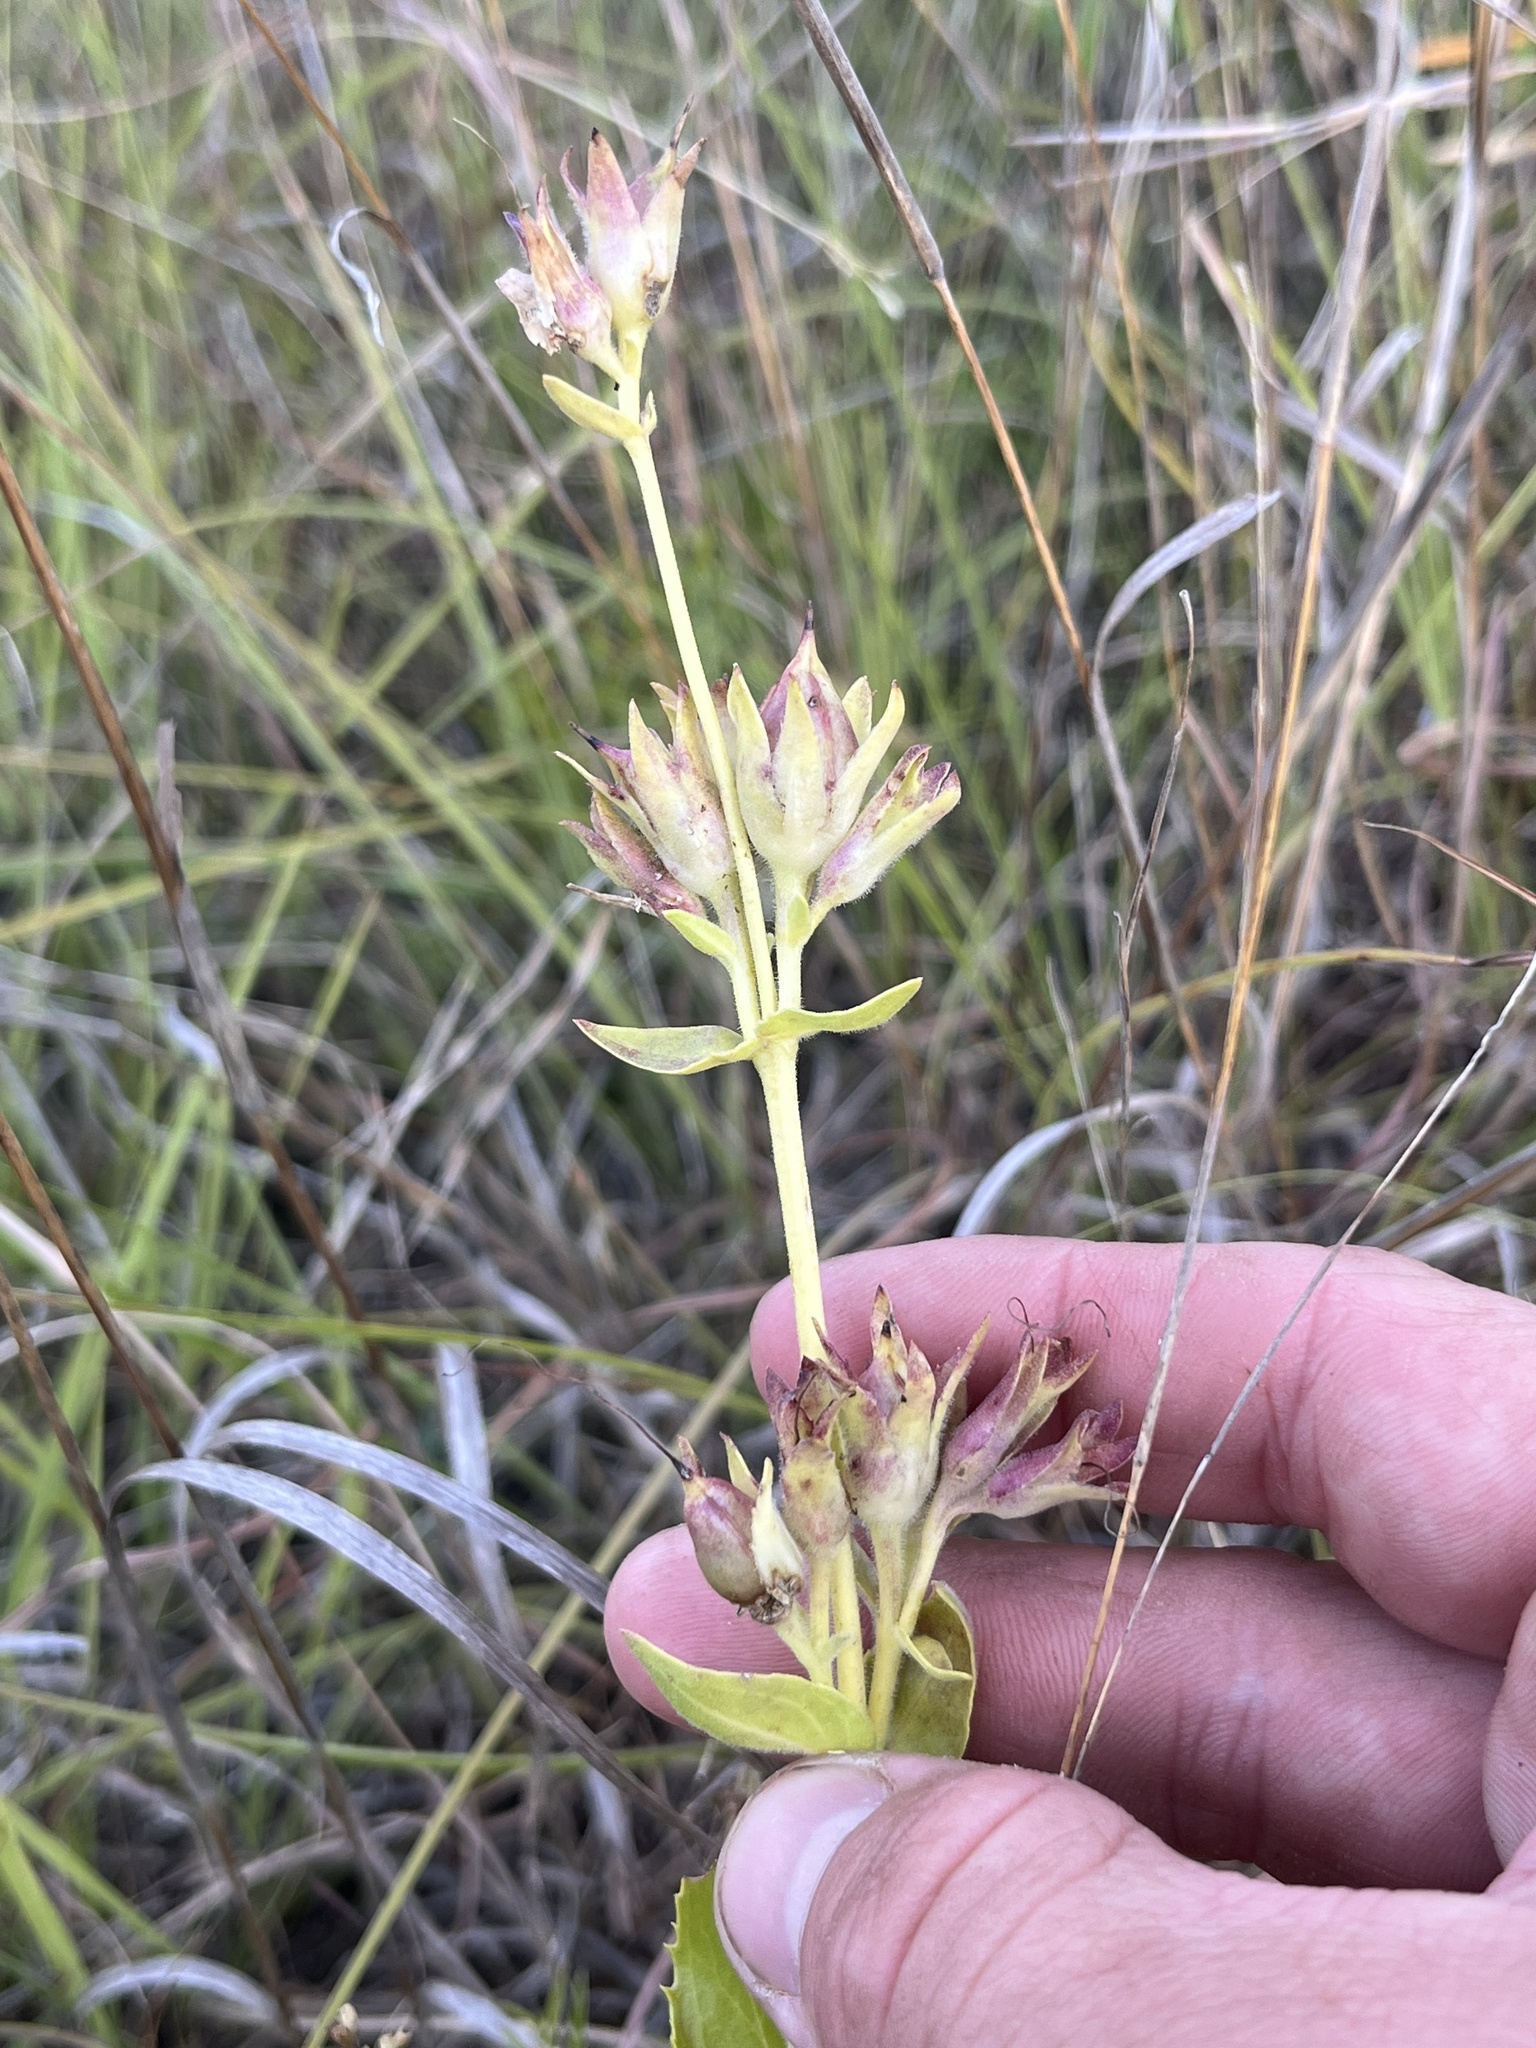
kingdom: Plantae
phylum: Tracheophyta
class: Magnoliopsida
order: Lamiales
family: Plantaginaceae
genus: Penstemon
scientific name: Penstemon cobaea
